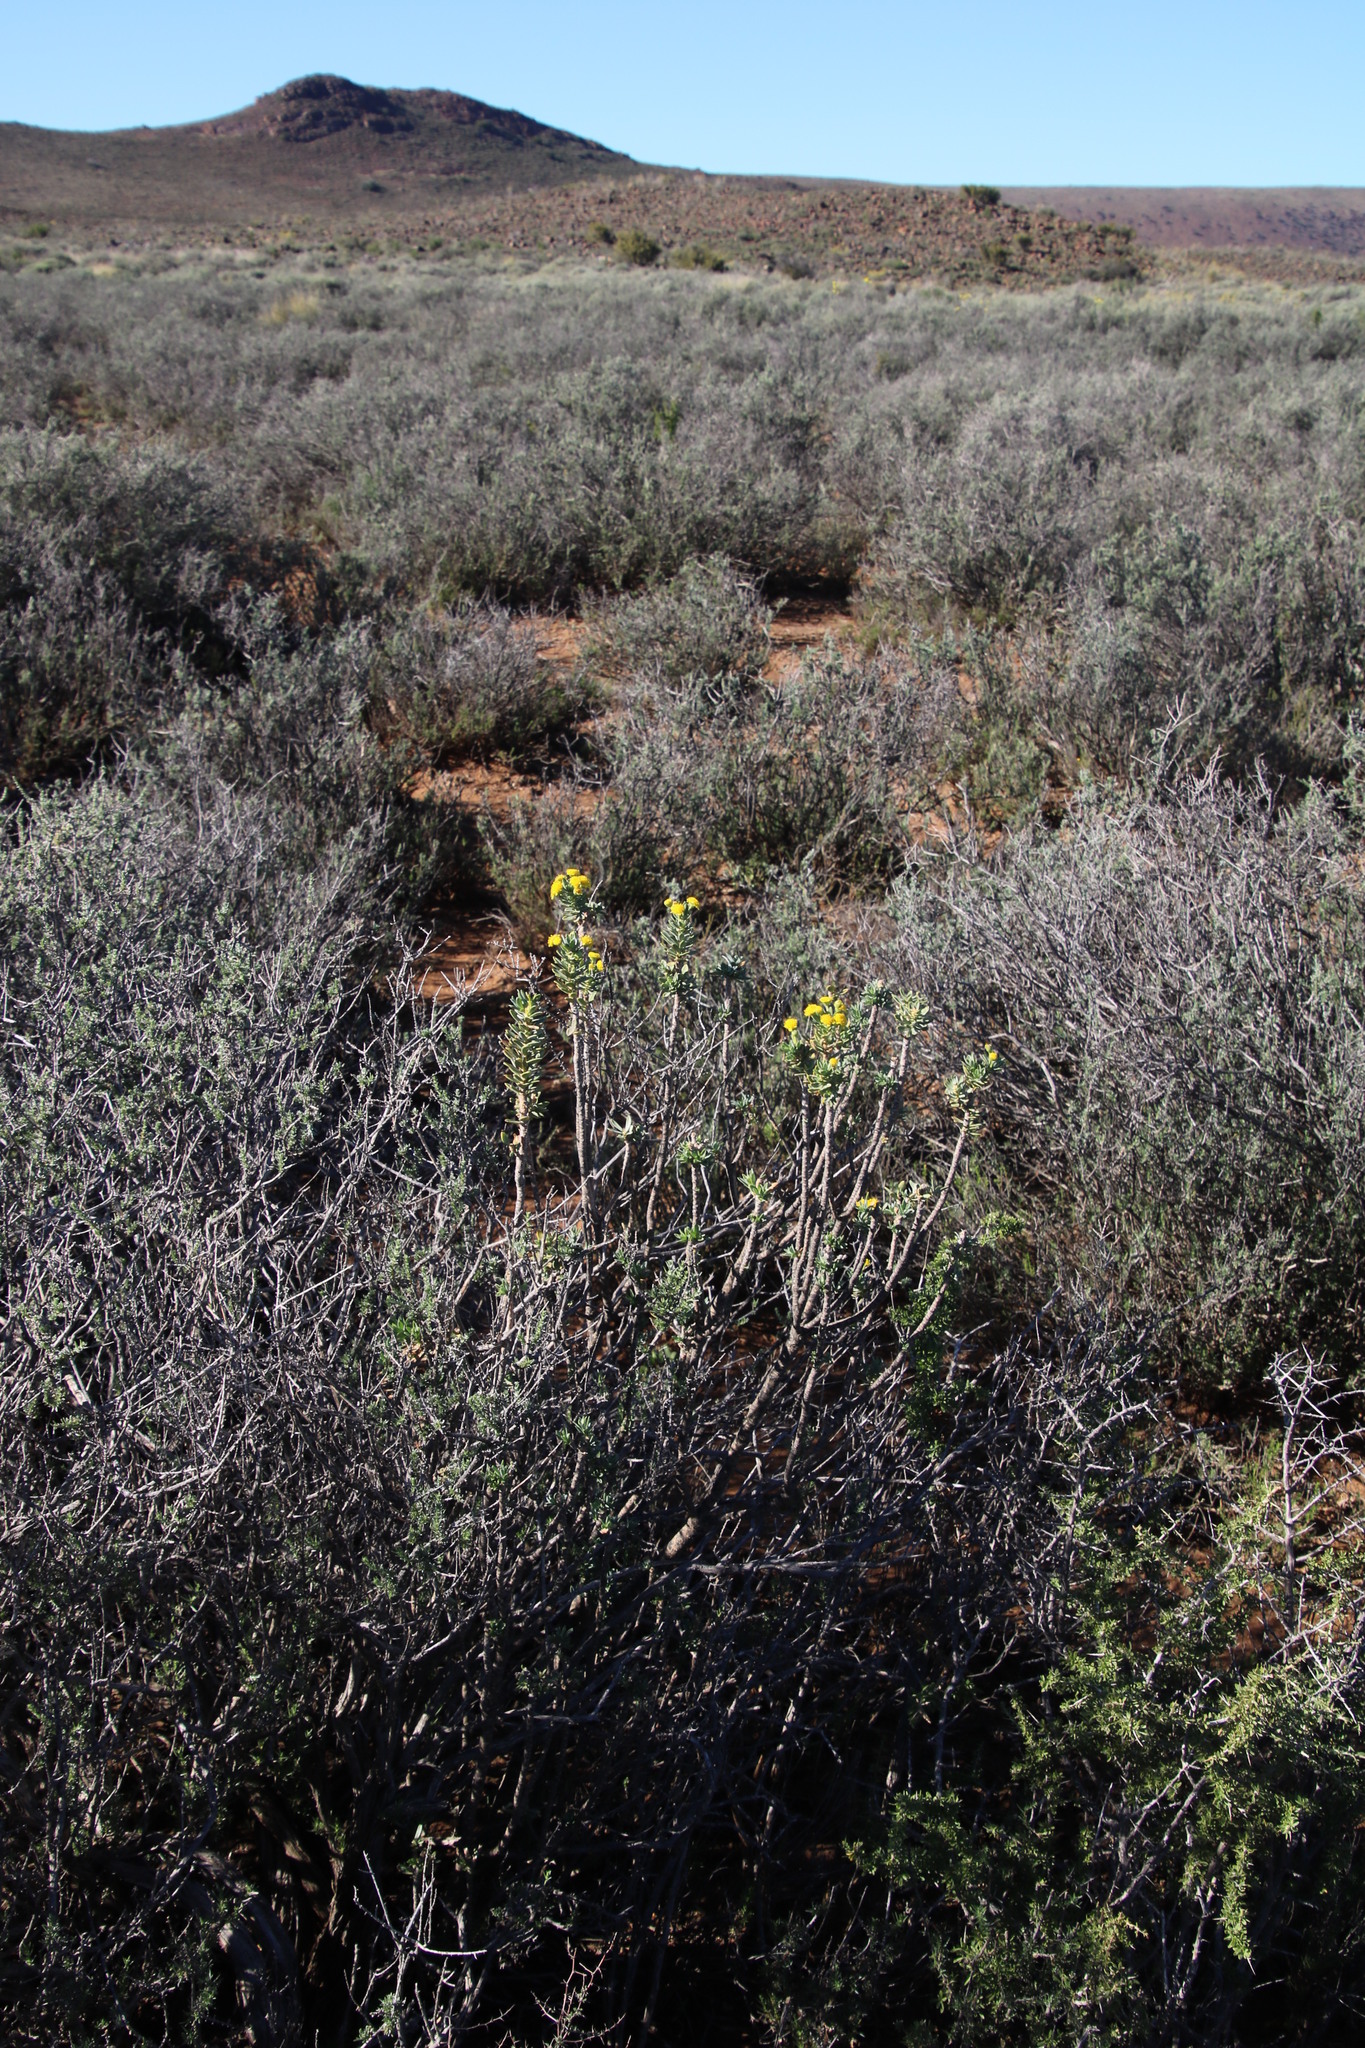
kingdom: Plantae
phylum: Tracheophyta
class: Magnoliopsida
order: Asterales
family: Asteraceae
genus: Euryops
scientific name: Euryops lateriflorus
